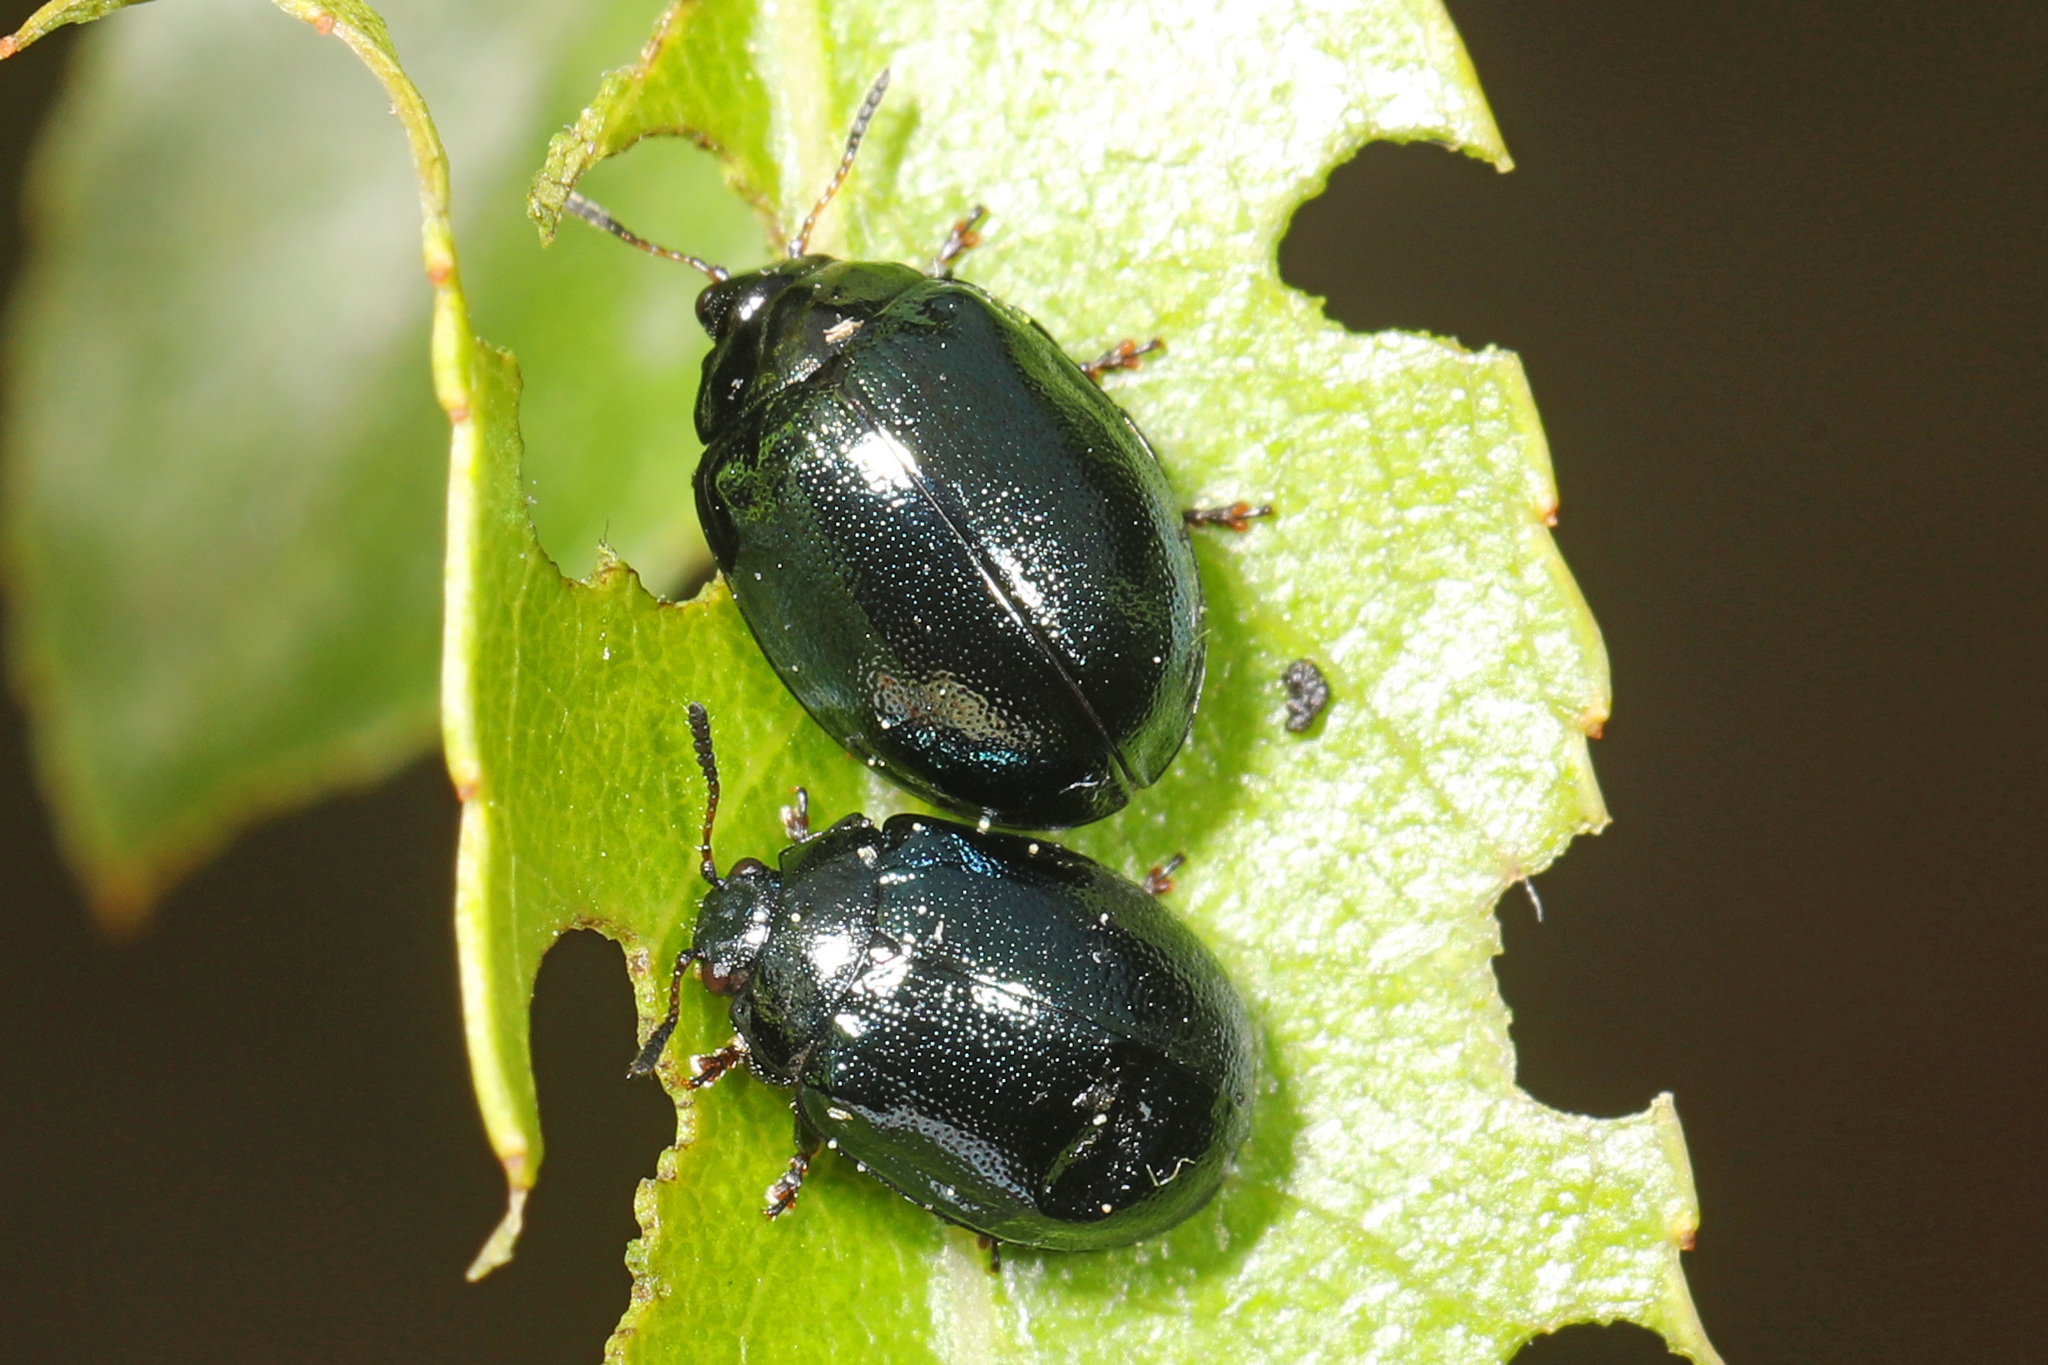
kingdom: Animalia
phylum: Arthropoda
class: Insecta
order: Coleoptera
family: Chrysomelidae
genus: Plagiodera
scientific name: Plagiodera versicolora
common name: Imported willow leaf beetle
